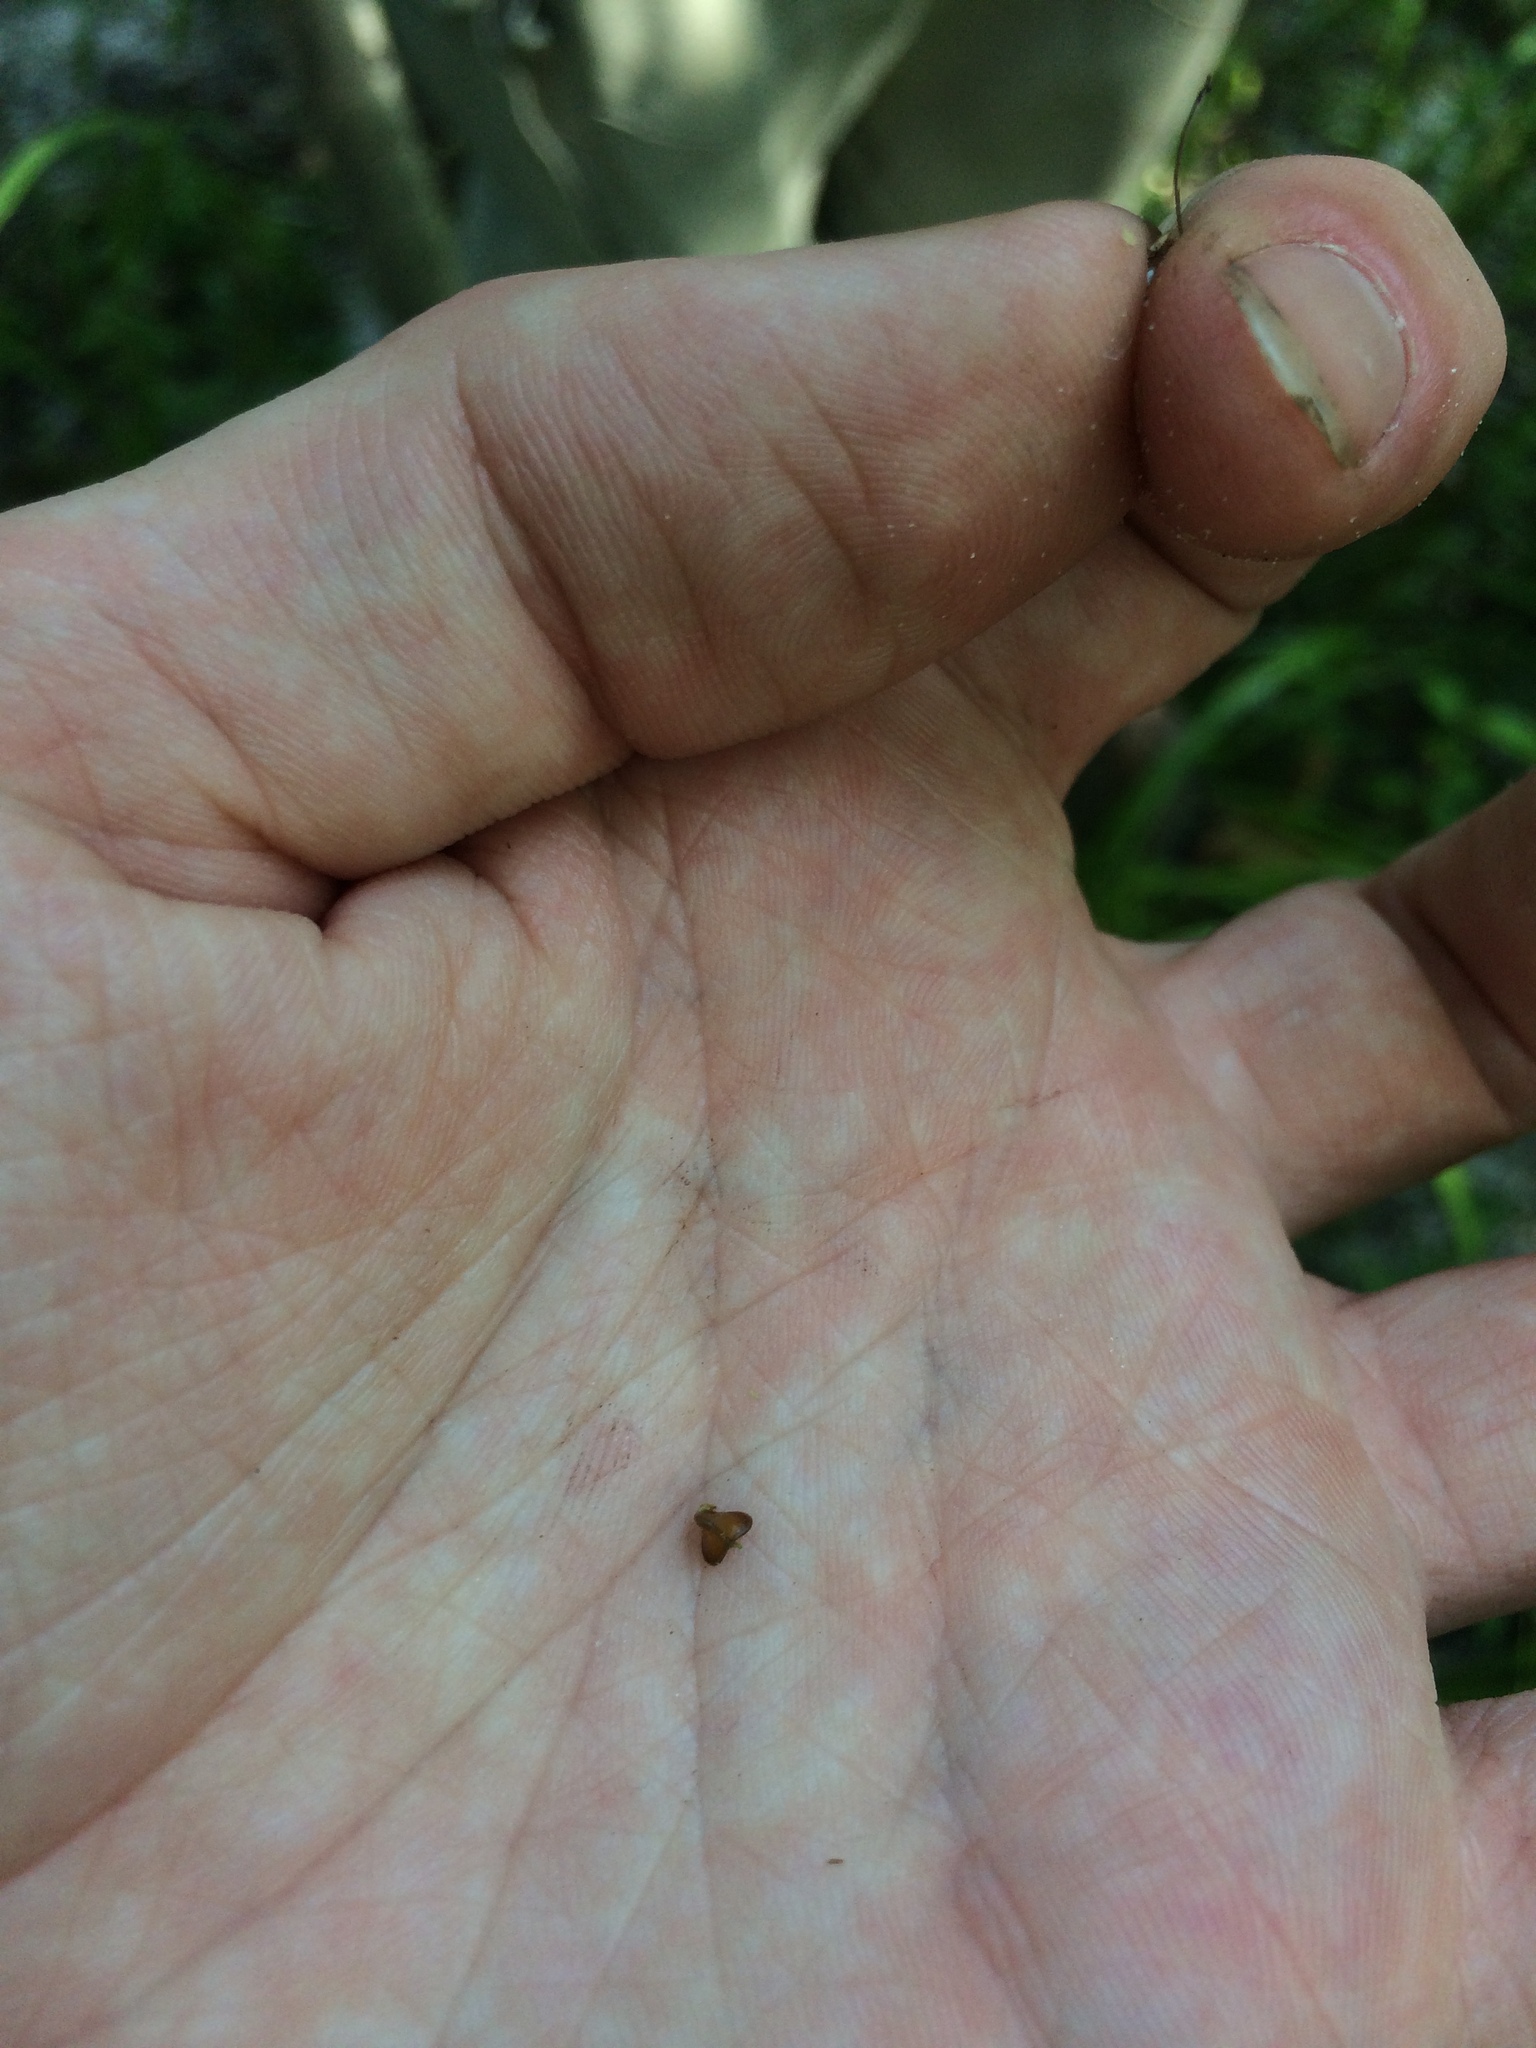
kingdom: Plantae
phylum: Tracheophyta
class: Liliopsida
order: Poales
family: Cyperaceae
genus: Carex
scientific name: Carex joorii
